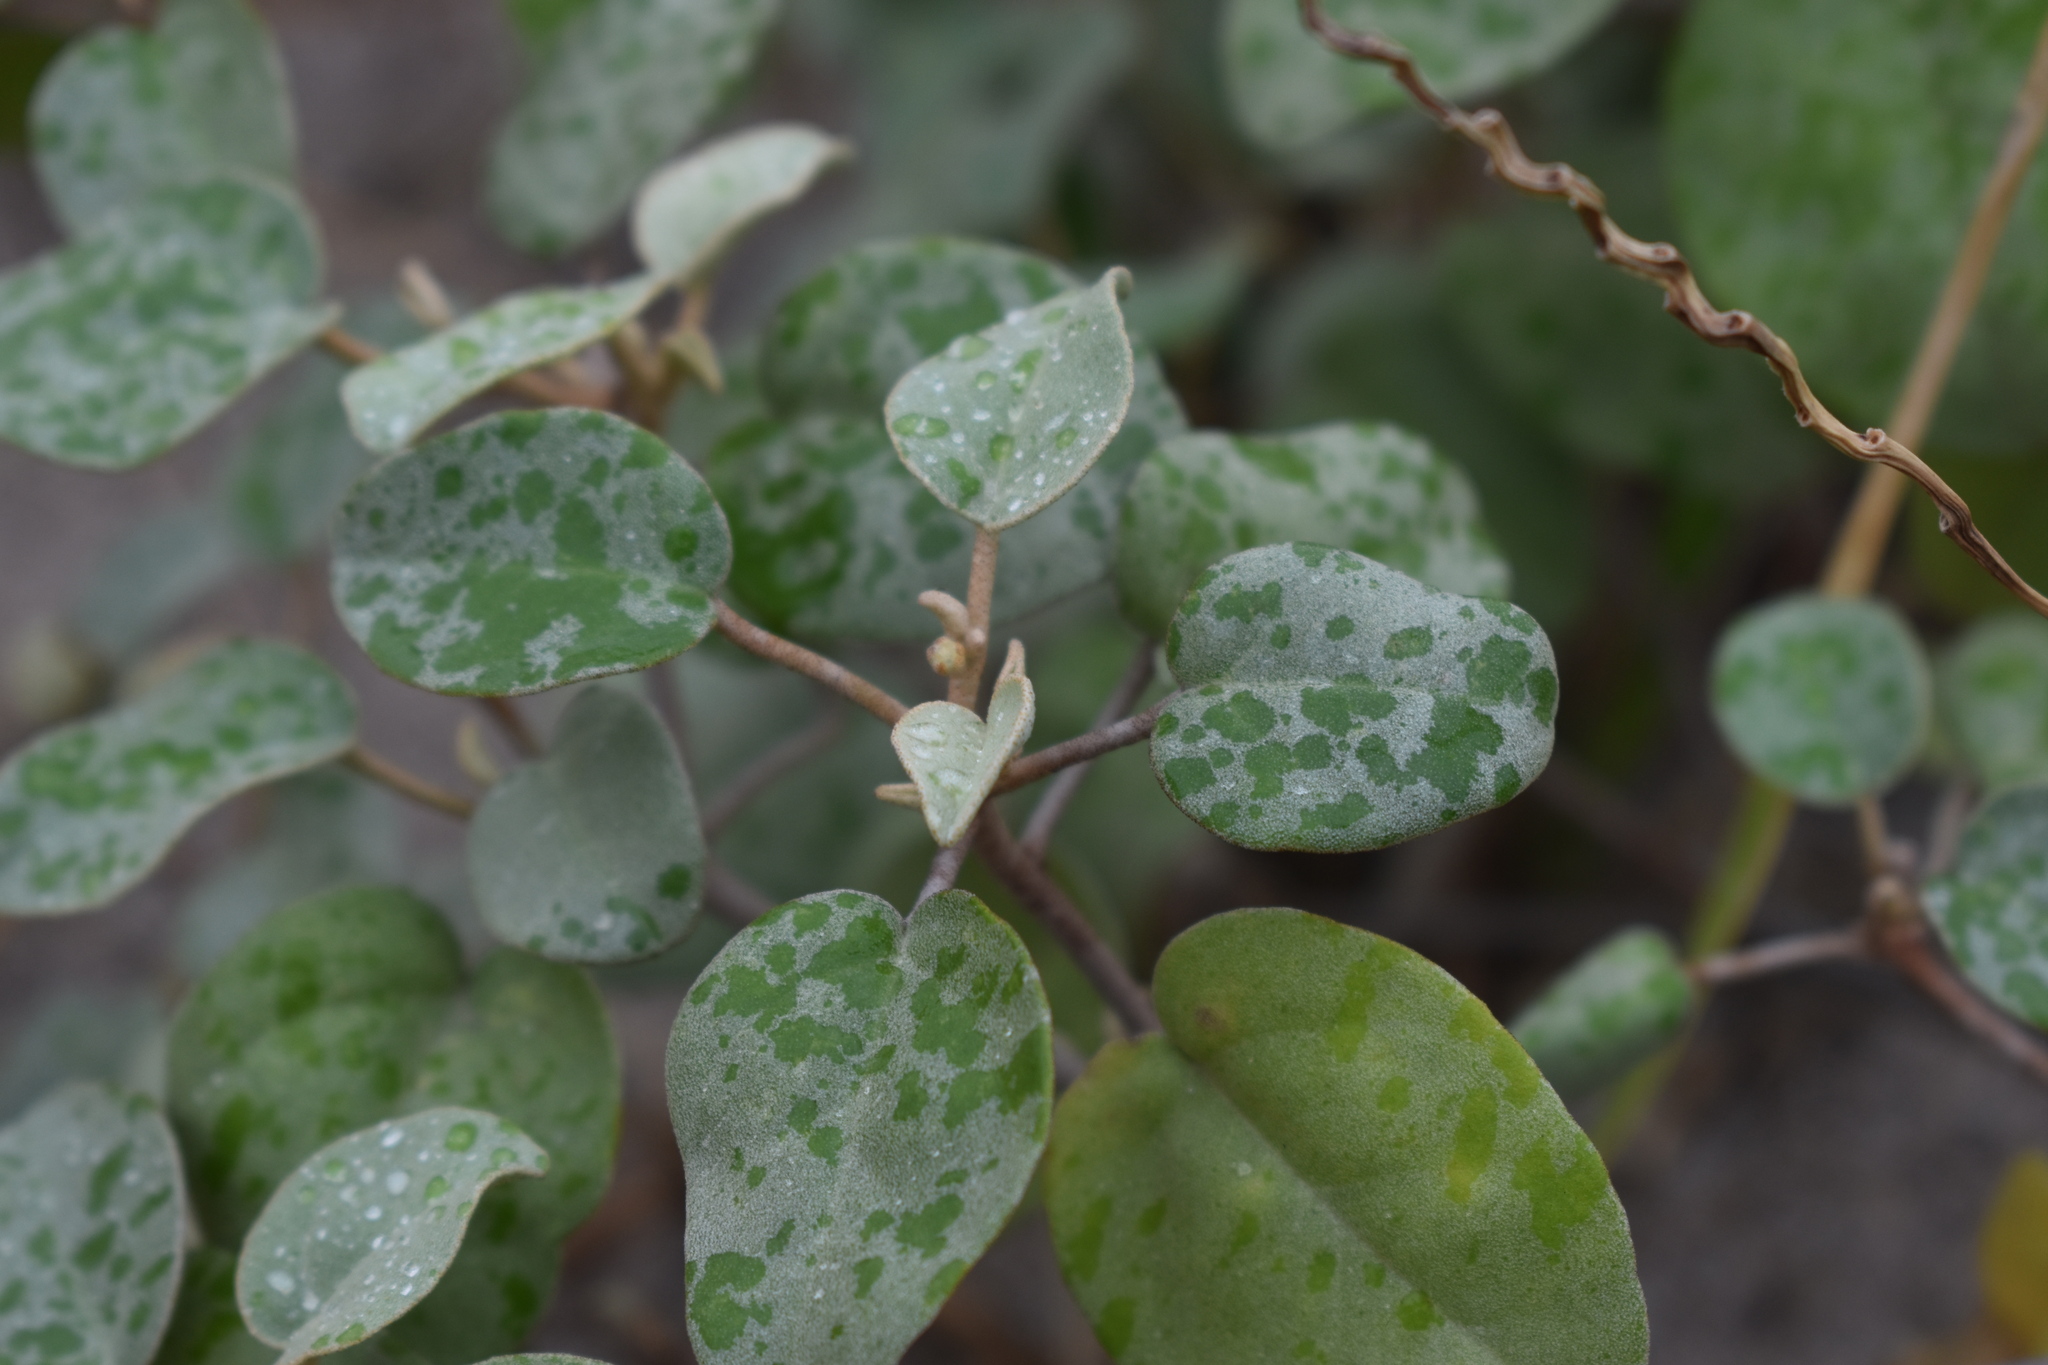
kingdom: Plantae
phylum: Tracheophyta
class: Magnoliopsida
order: Malpighiales
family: Euphorbiaceae
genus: Croton
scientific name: Croton punctatus
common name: Beach-tea
